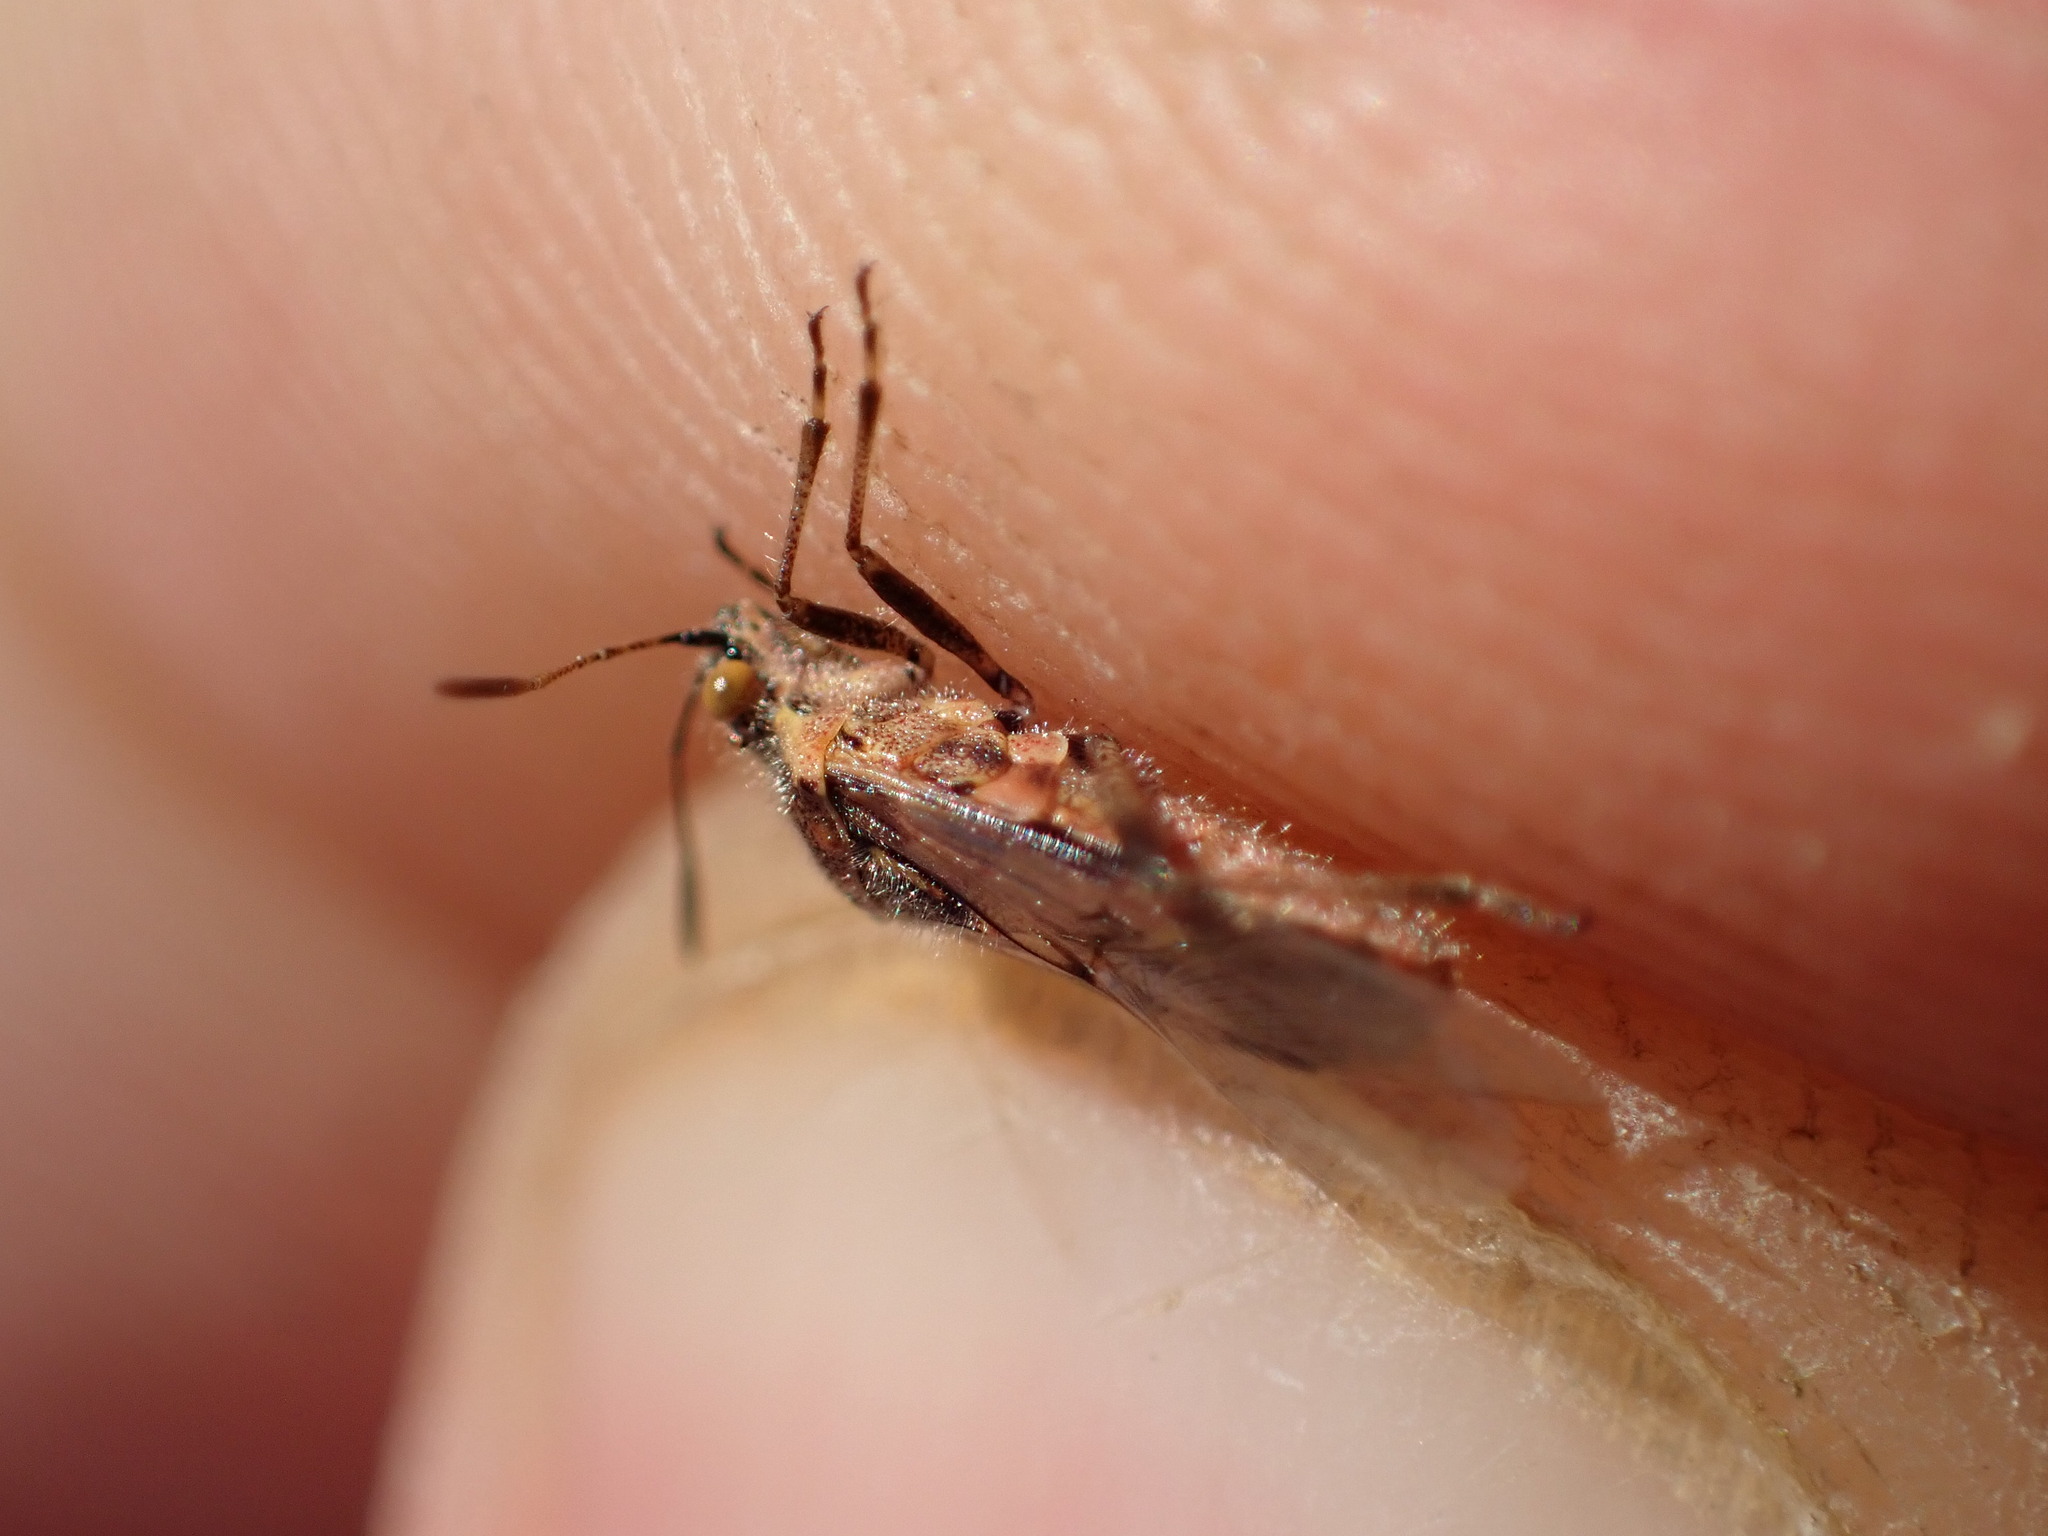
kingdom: Animalia
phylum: Arthropoda
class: Insecta
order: Hemiptera
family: Rhopalidae
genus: Liorhyssus
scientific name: Liorhyssus hyalinus
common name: Scentless plant bug
